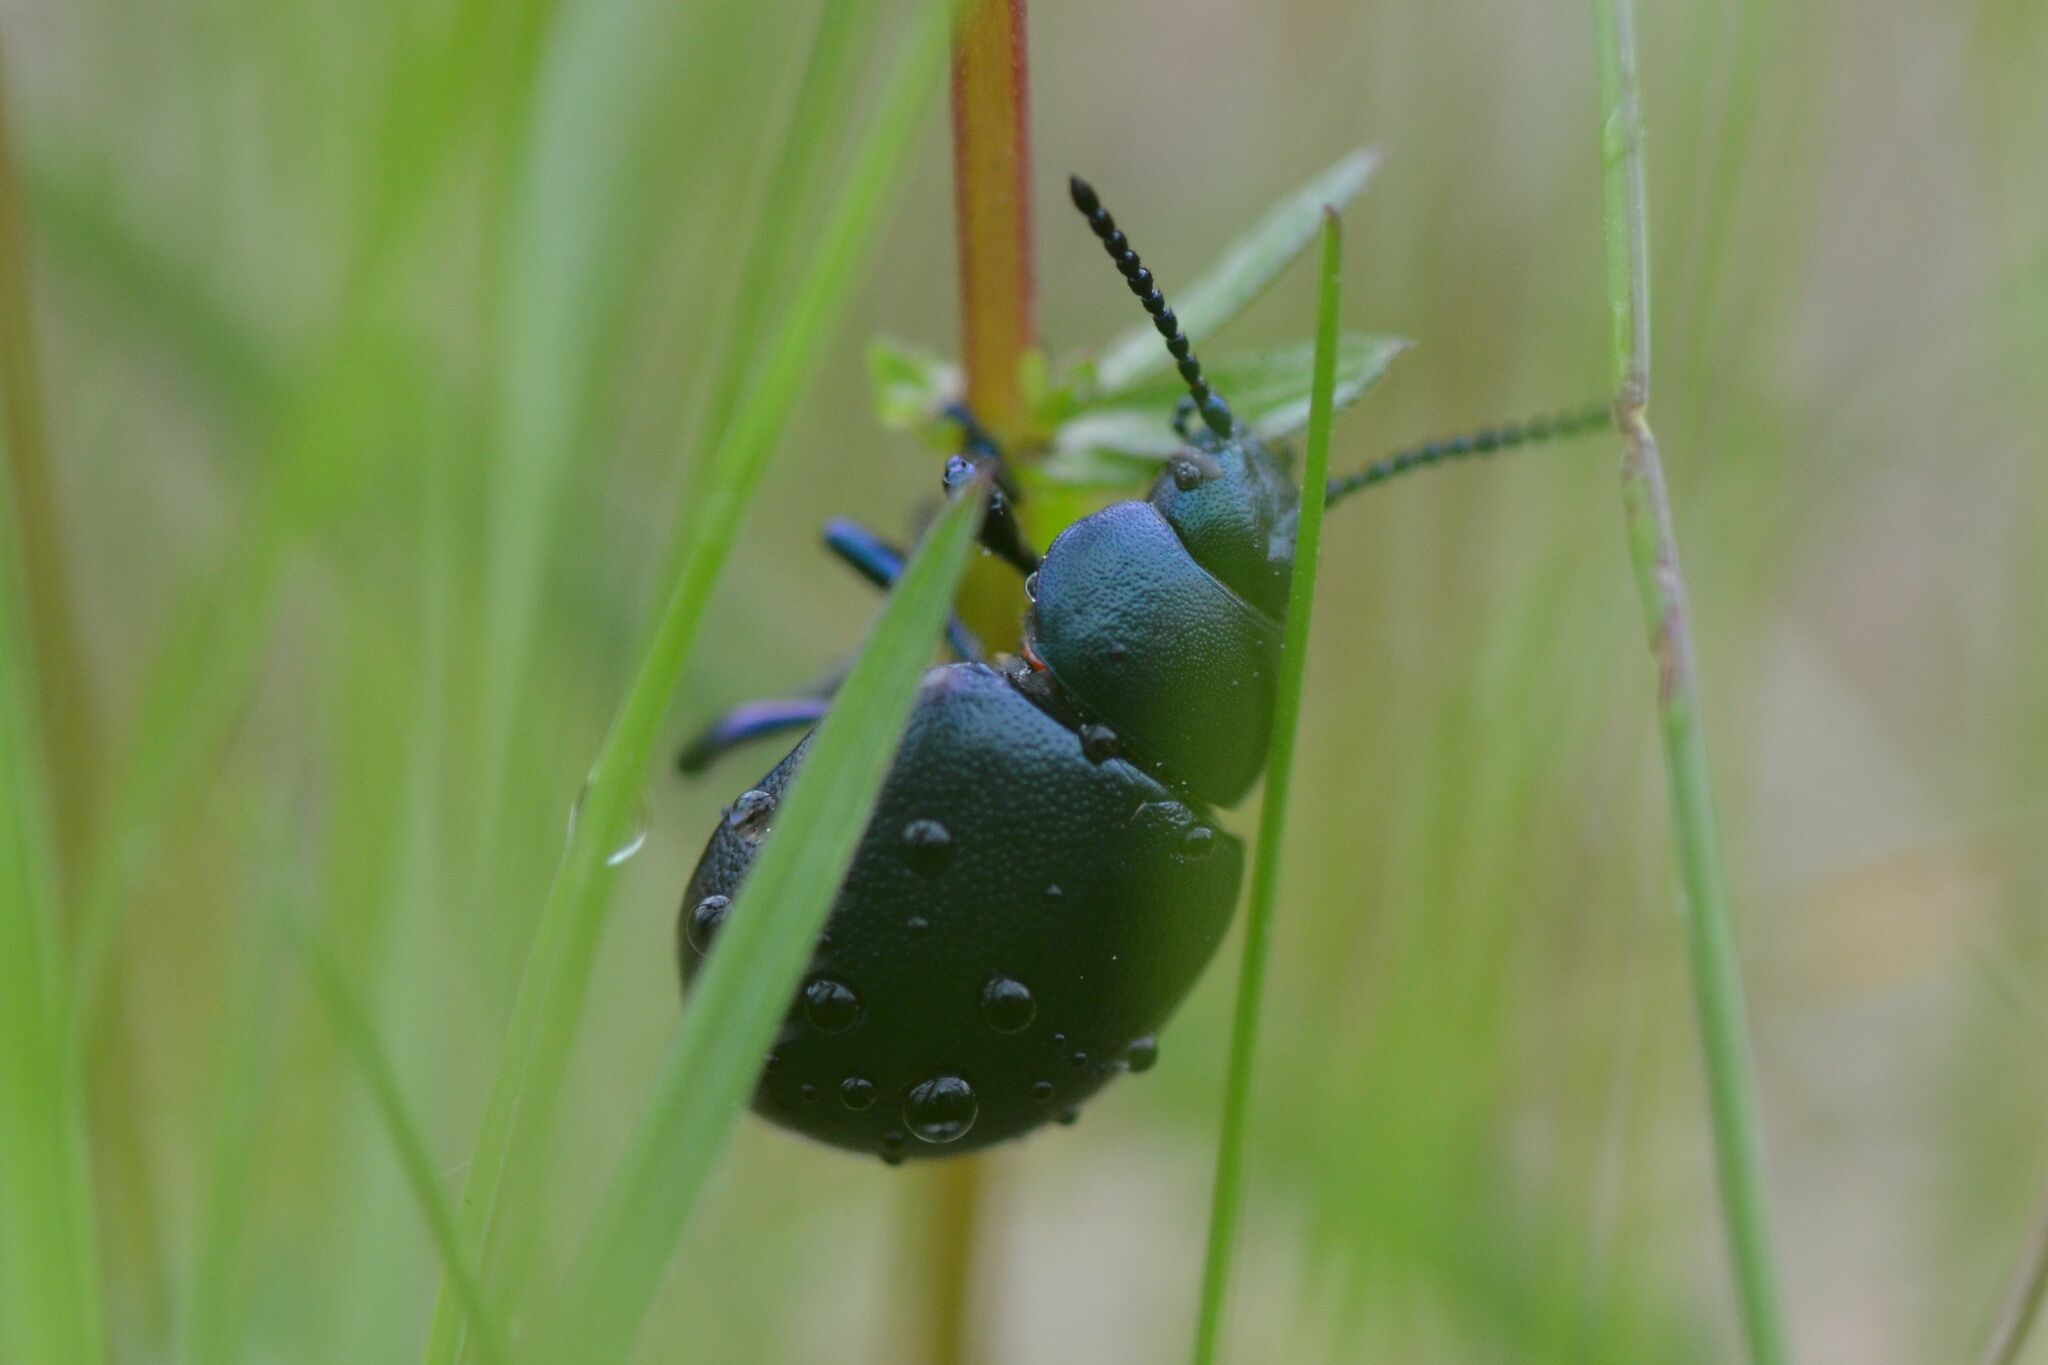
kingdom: Animalia
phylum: Arthropoda
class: Insecta
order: Coleoptera
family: Chrysomelidae
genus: Timarcha
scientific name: Timarcha goettingensis
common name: Small bloody-nosed beetle
